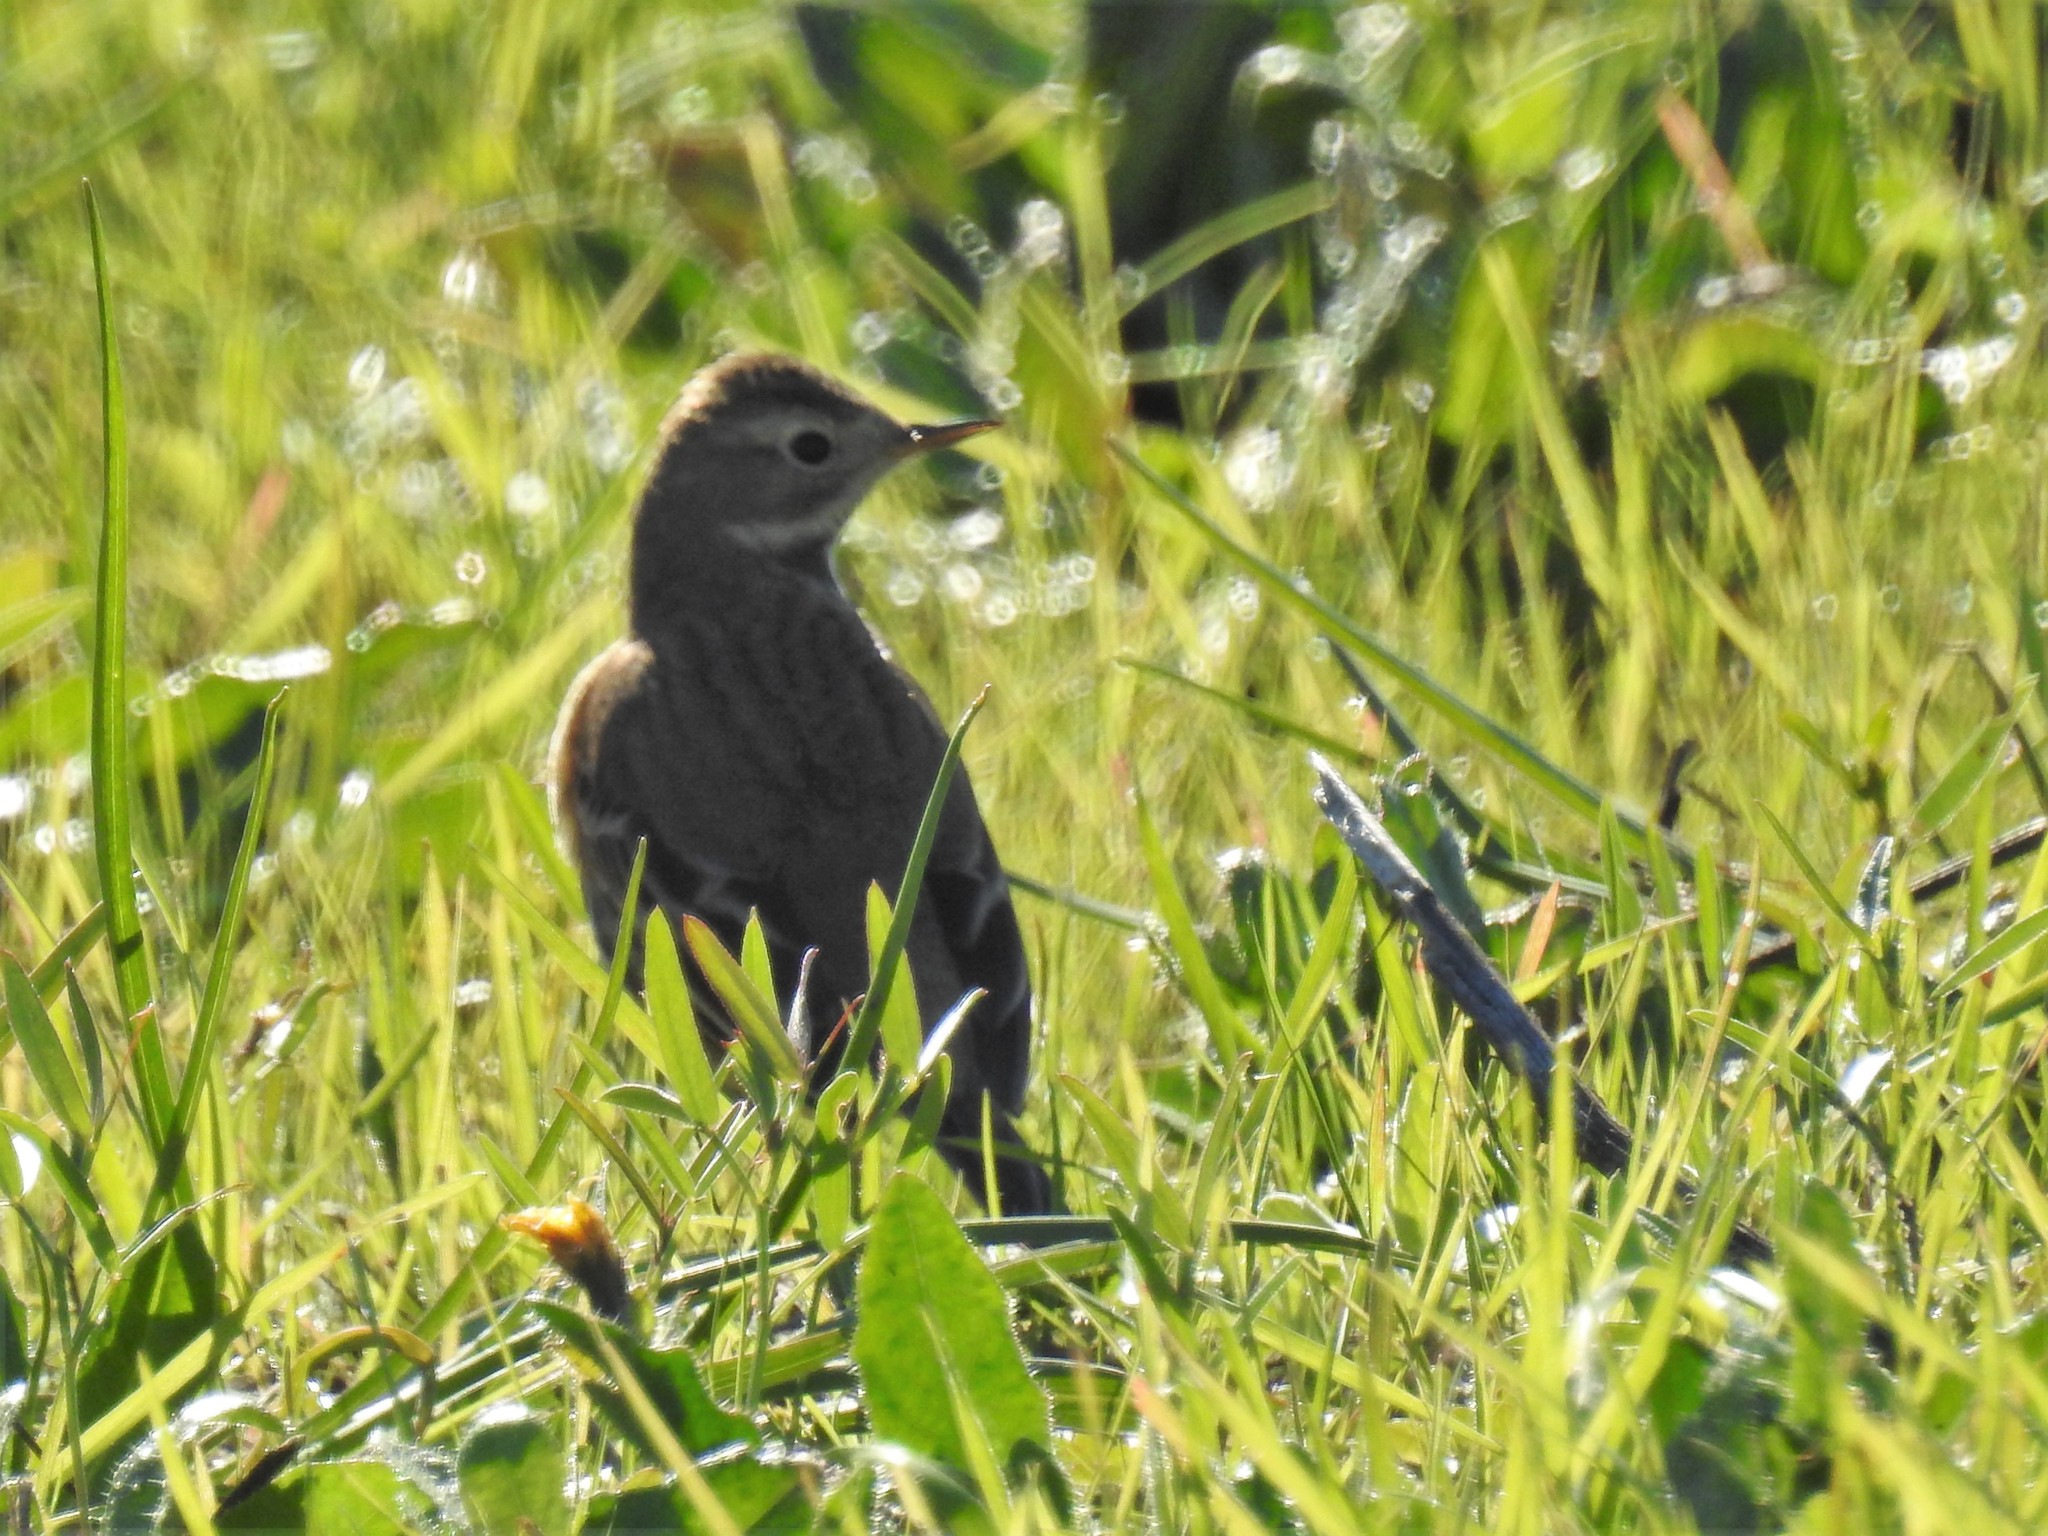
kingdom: Animalia
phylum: Chordata
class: Aves
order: Passeriformes
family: Motacillidae
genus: Anthus
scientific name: Anthus rubescens
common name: Buff-bellied pipit
